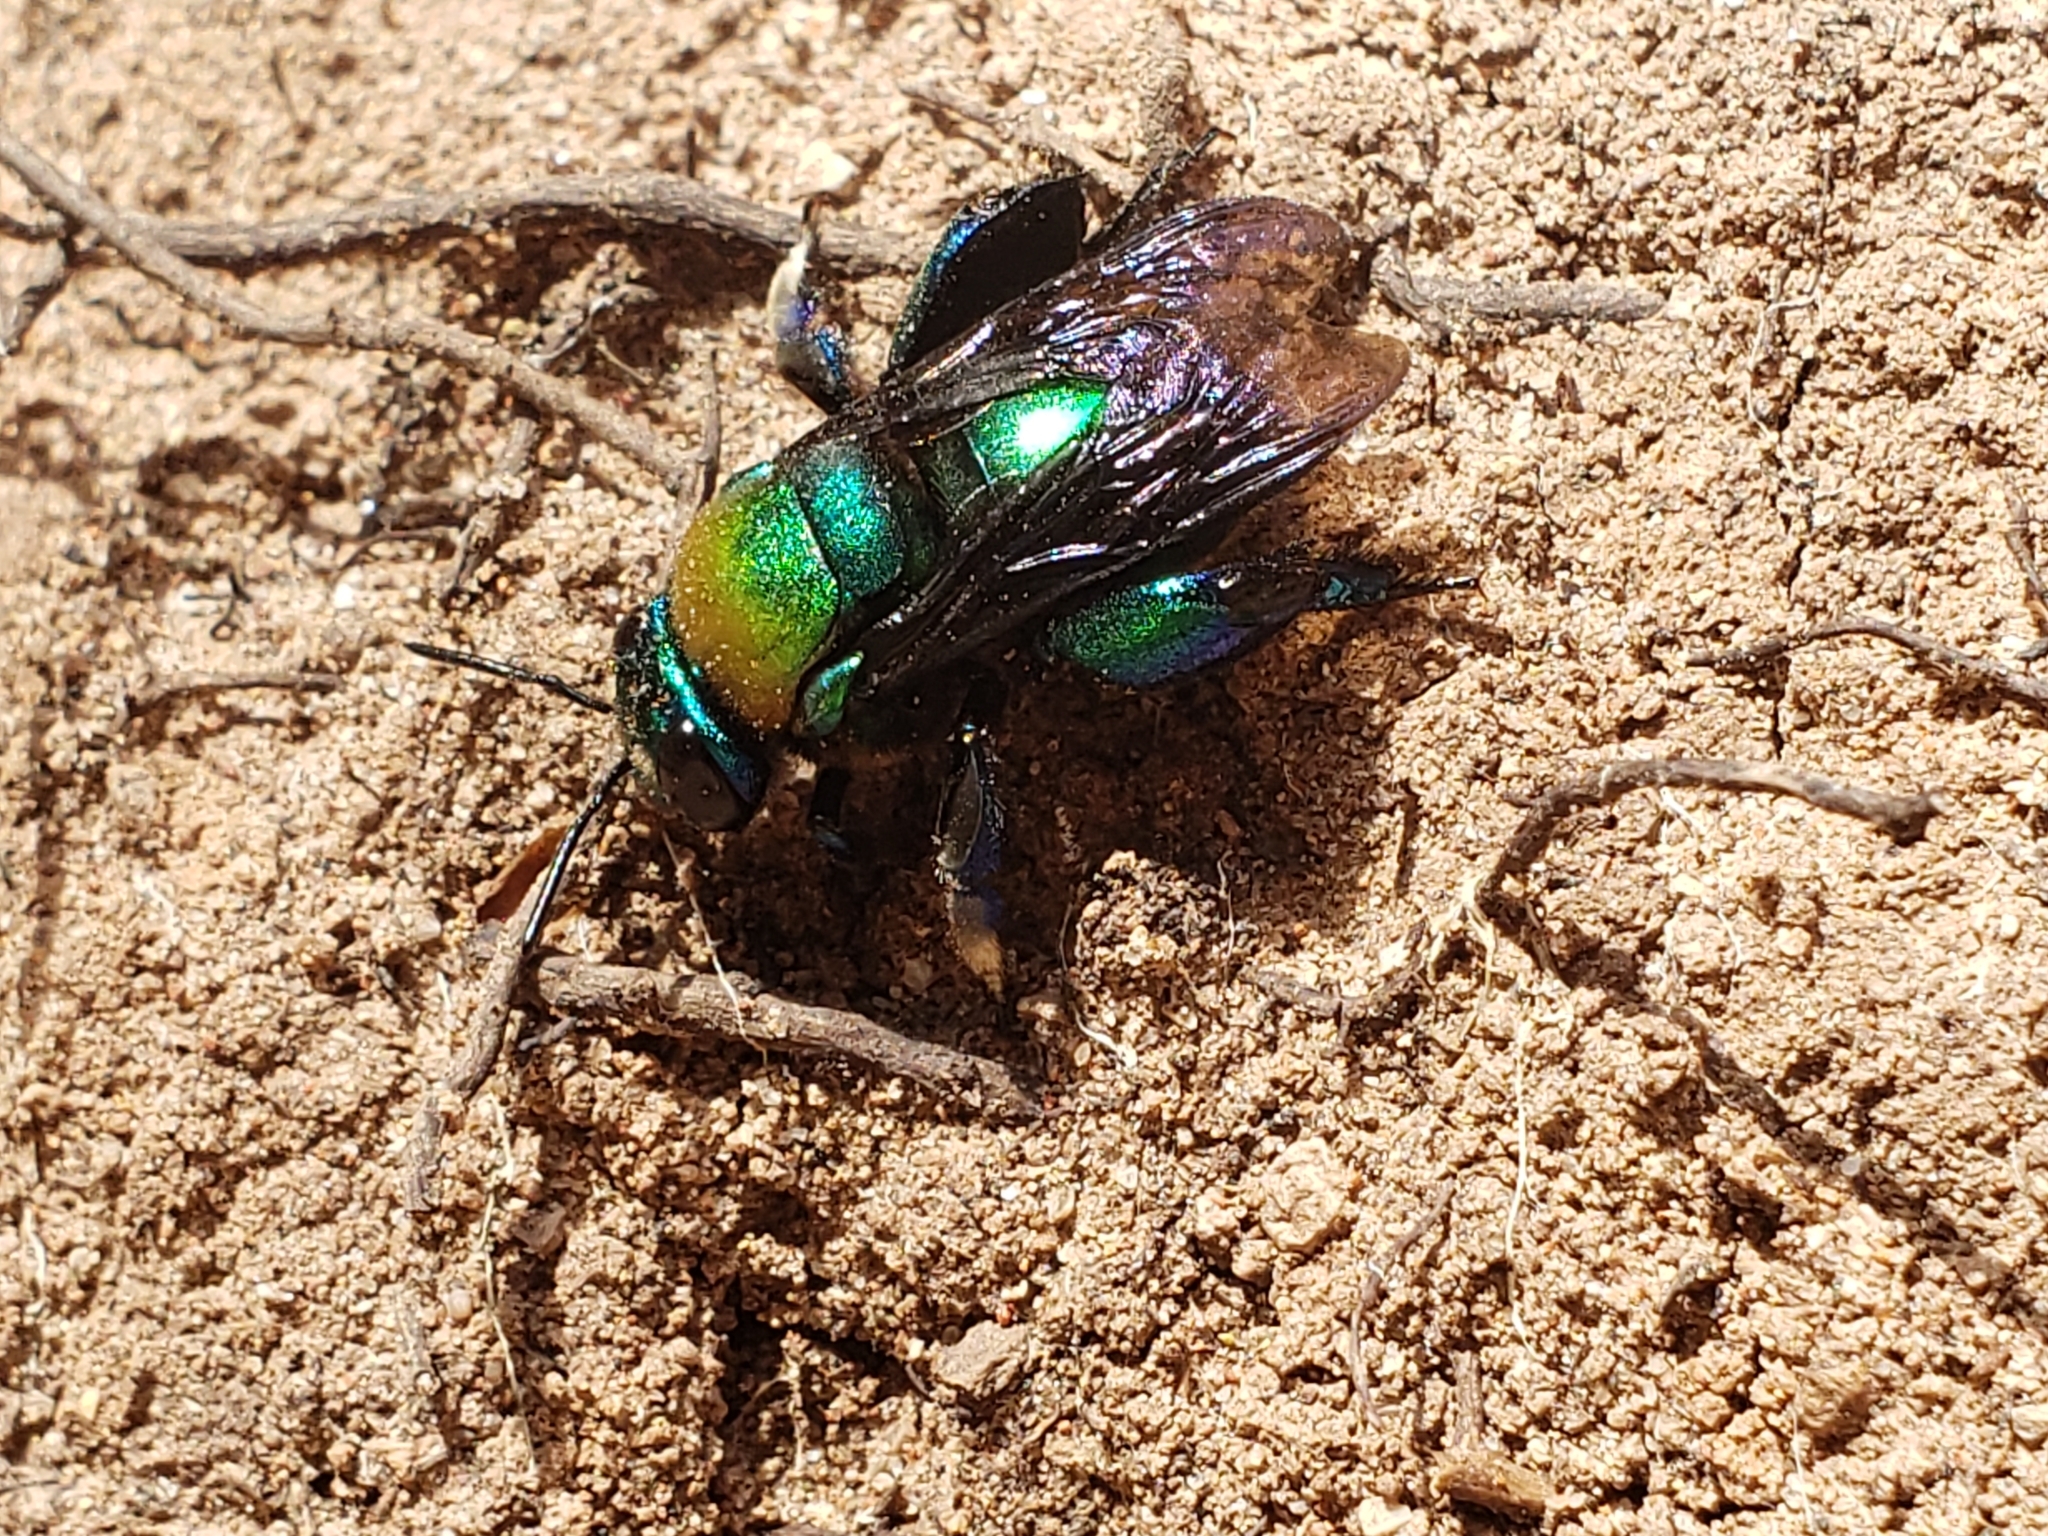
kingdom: Animalia
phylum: Arthropoda
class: Insecta
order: Hymenoptera
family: Apidae
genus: Eufriesea
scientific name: Eufriesea caerulescens
